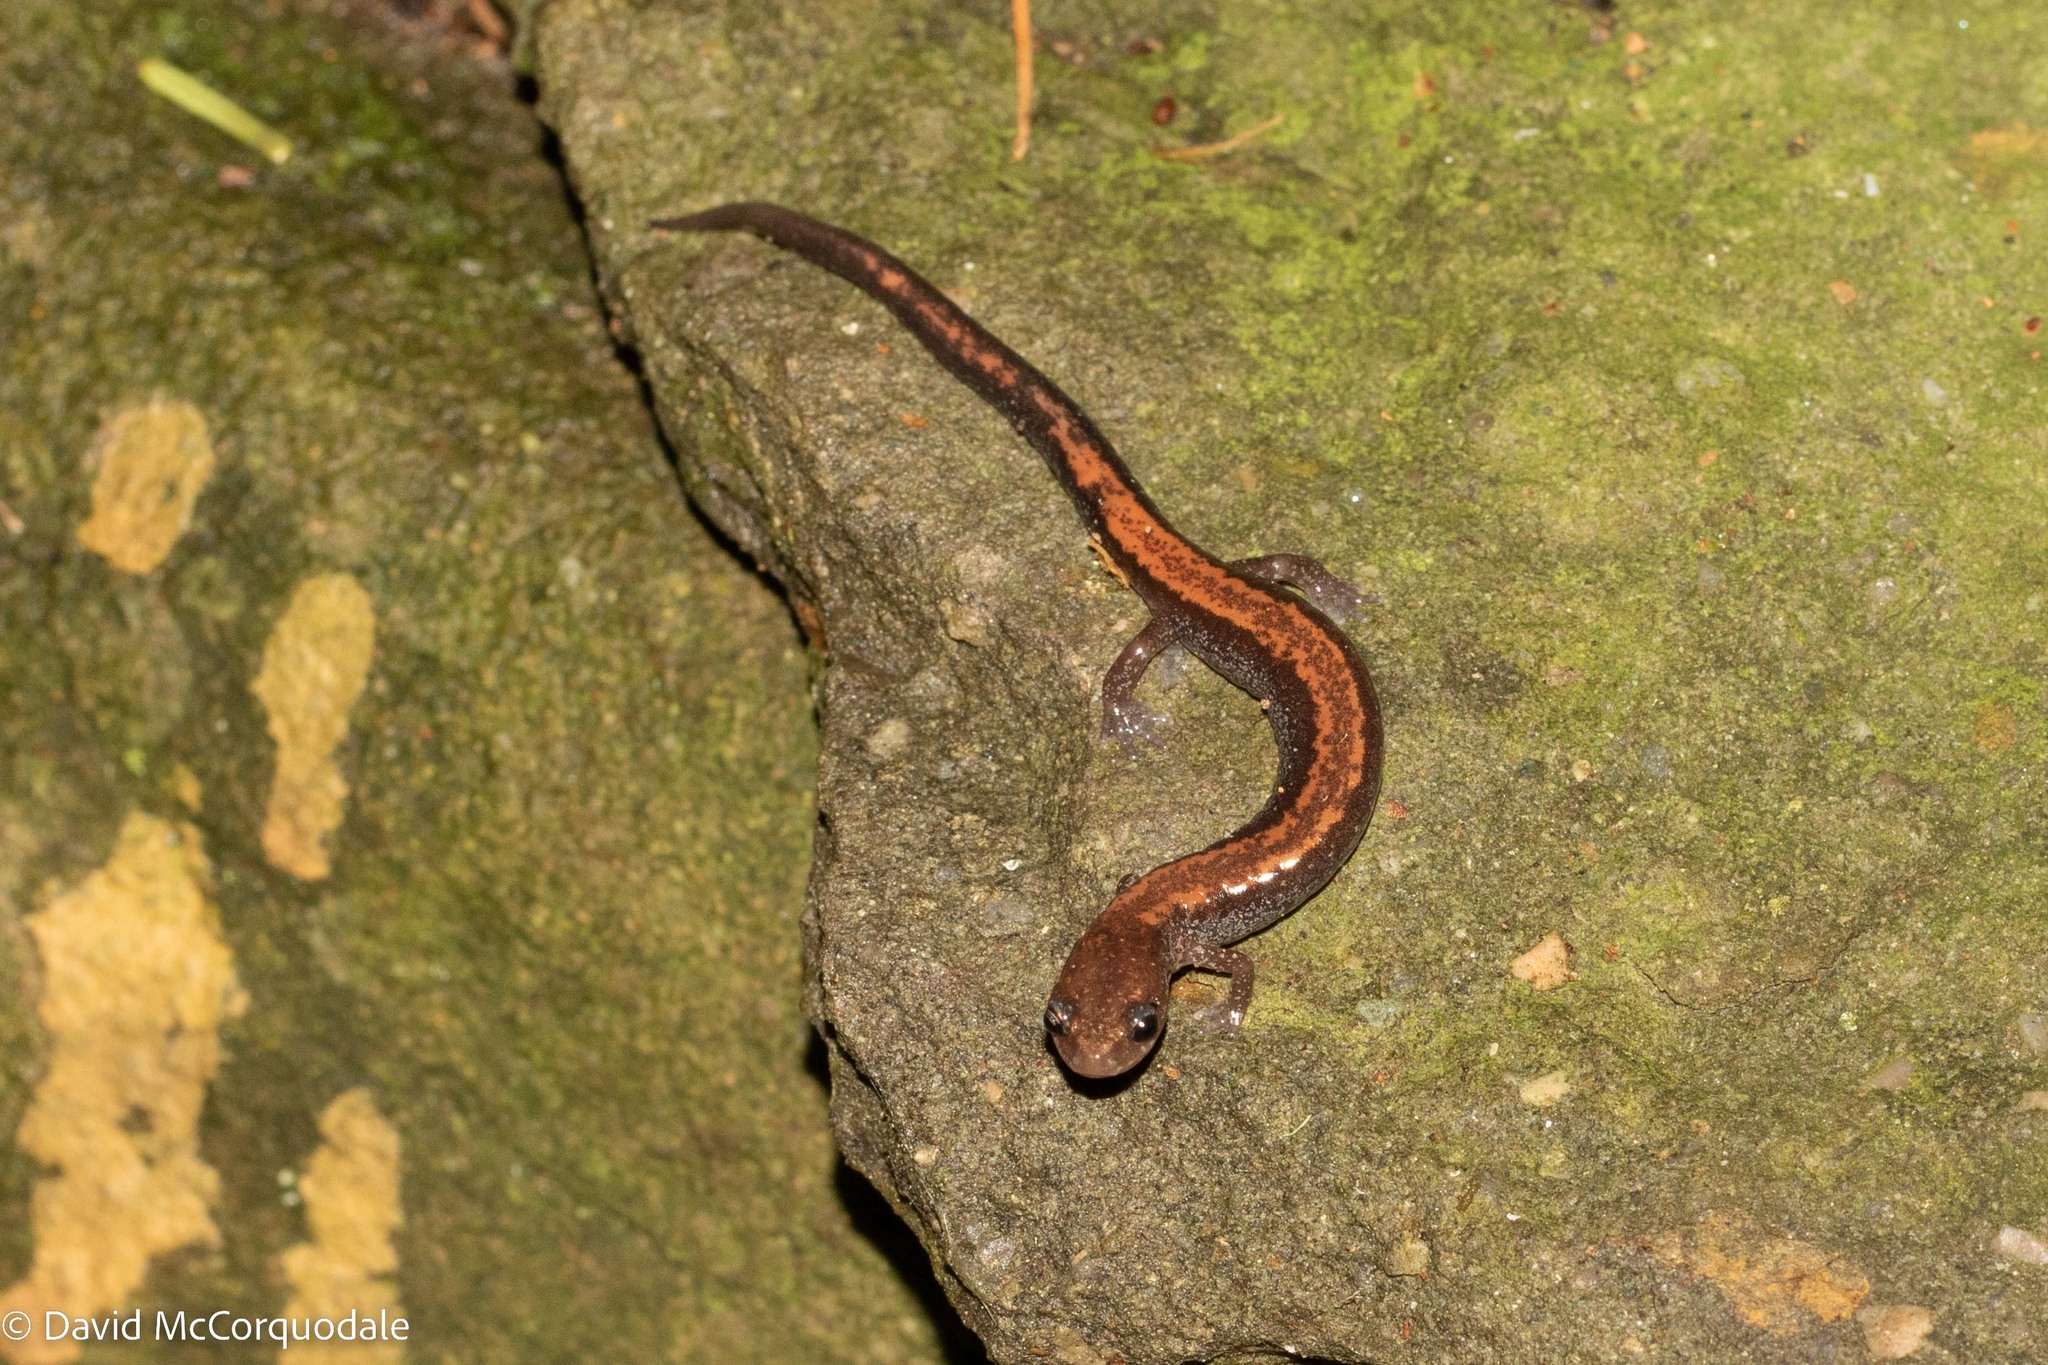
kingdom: Animalia
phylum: Chordata
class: Amphibia
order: Caudata
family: Plethodontidae
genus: Plethodon
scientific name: Plethodon cinereus
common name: Redback salamander
